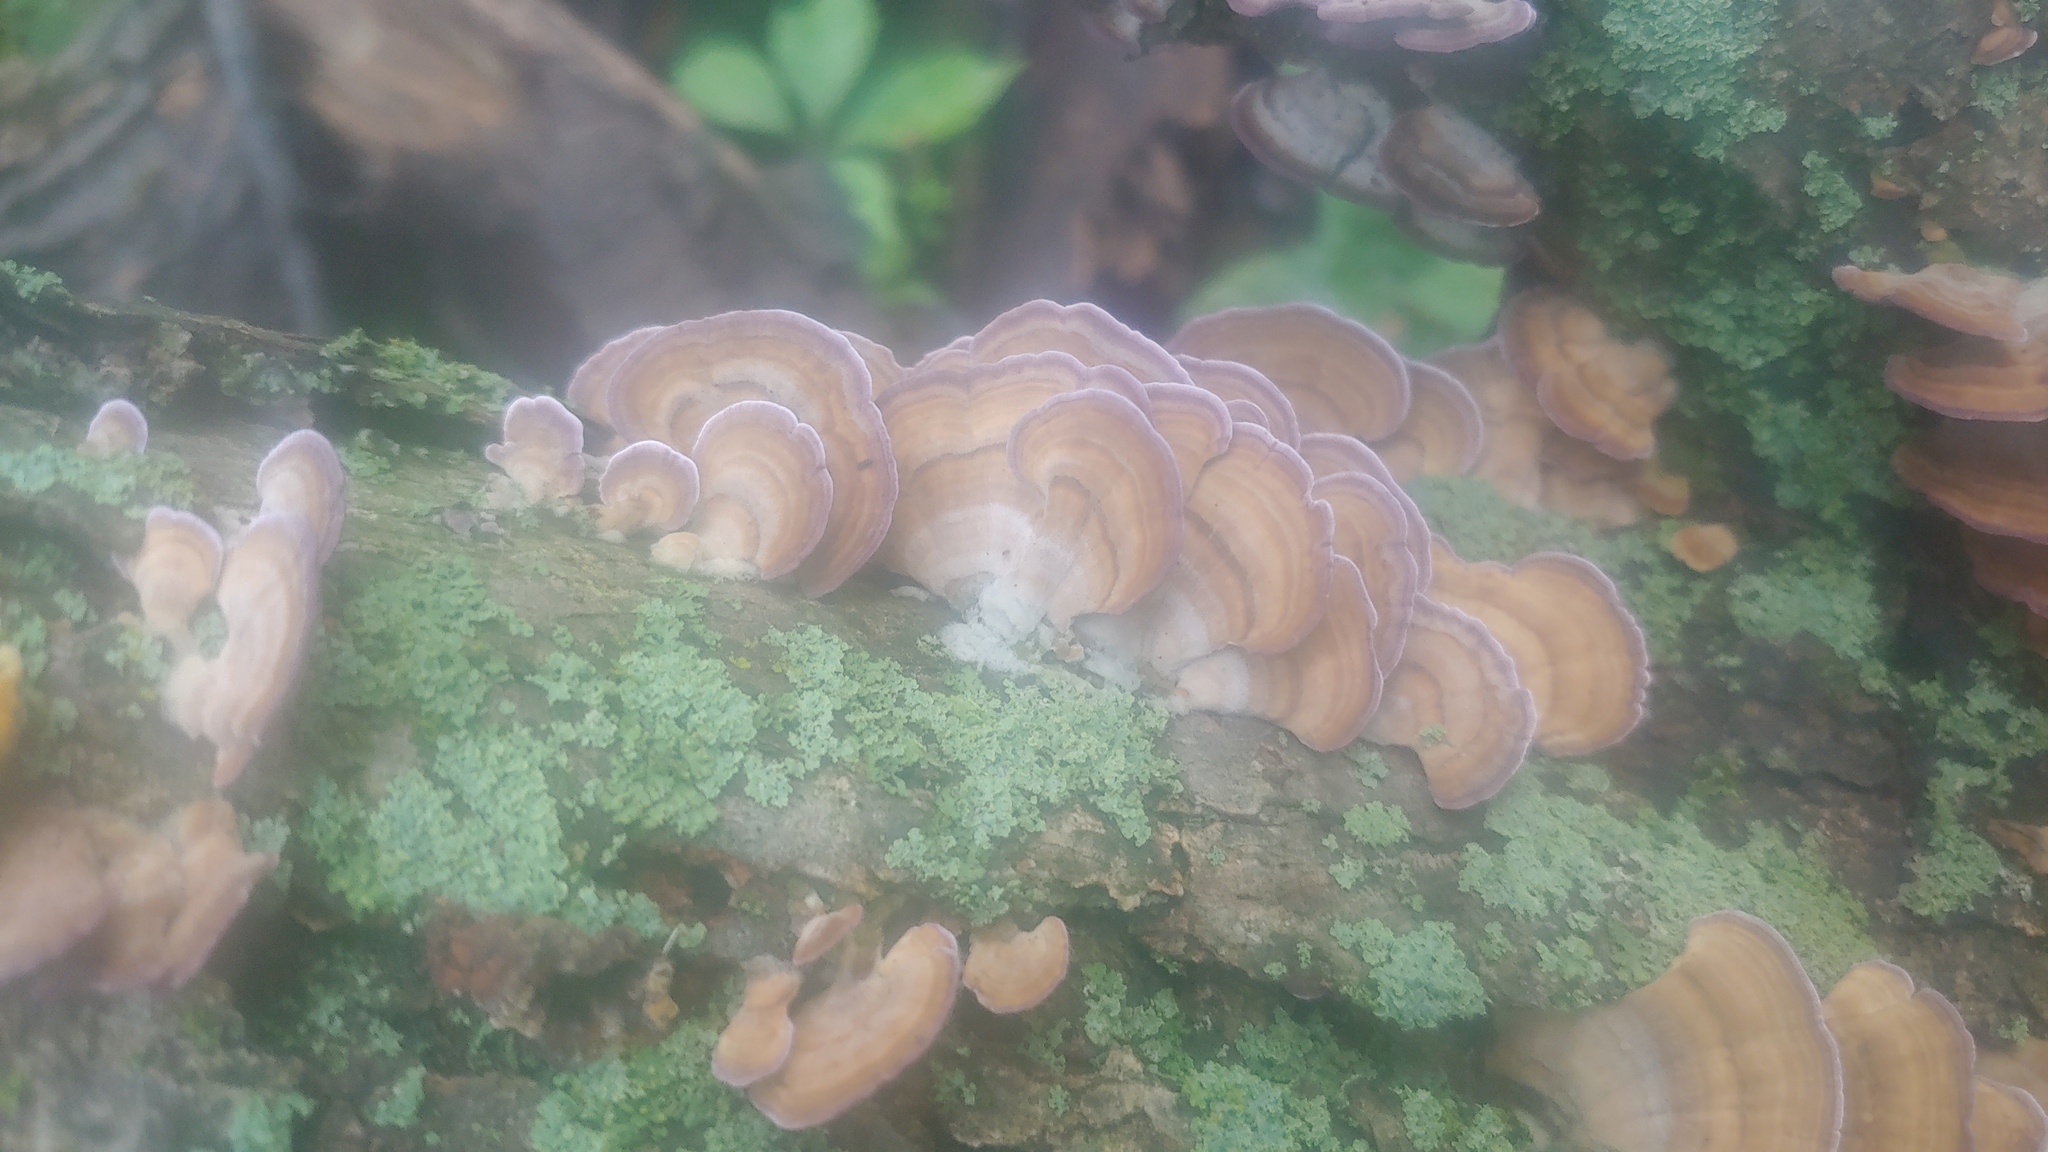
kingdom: Fungi
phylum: Basidiomycota
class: Agaricomycetes
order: Hymenochaetales
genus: Trichaptum
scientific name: Trichaptum biforme
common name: Violet-toothed polypore
